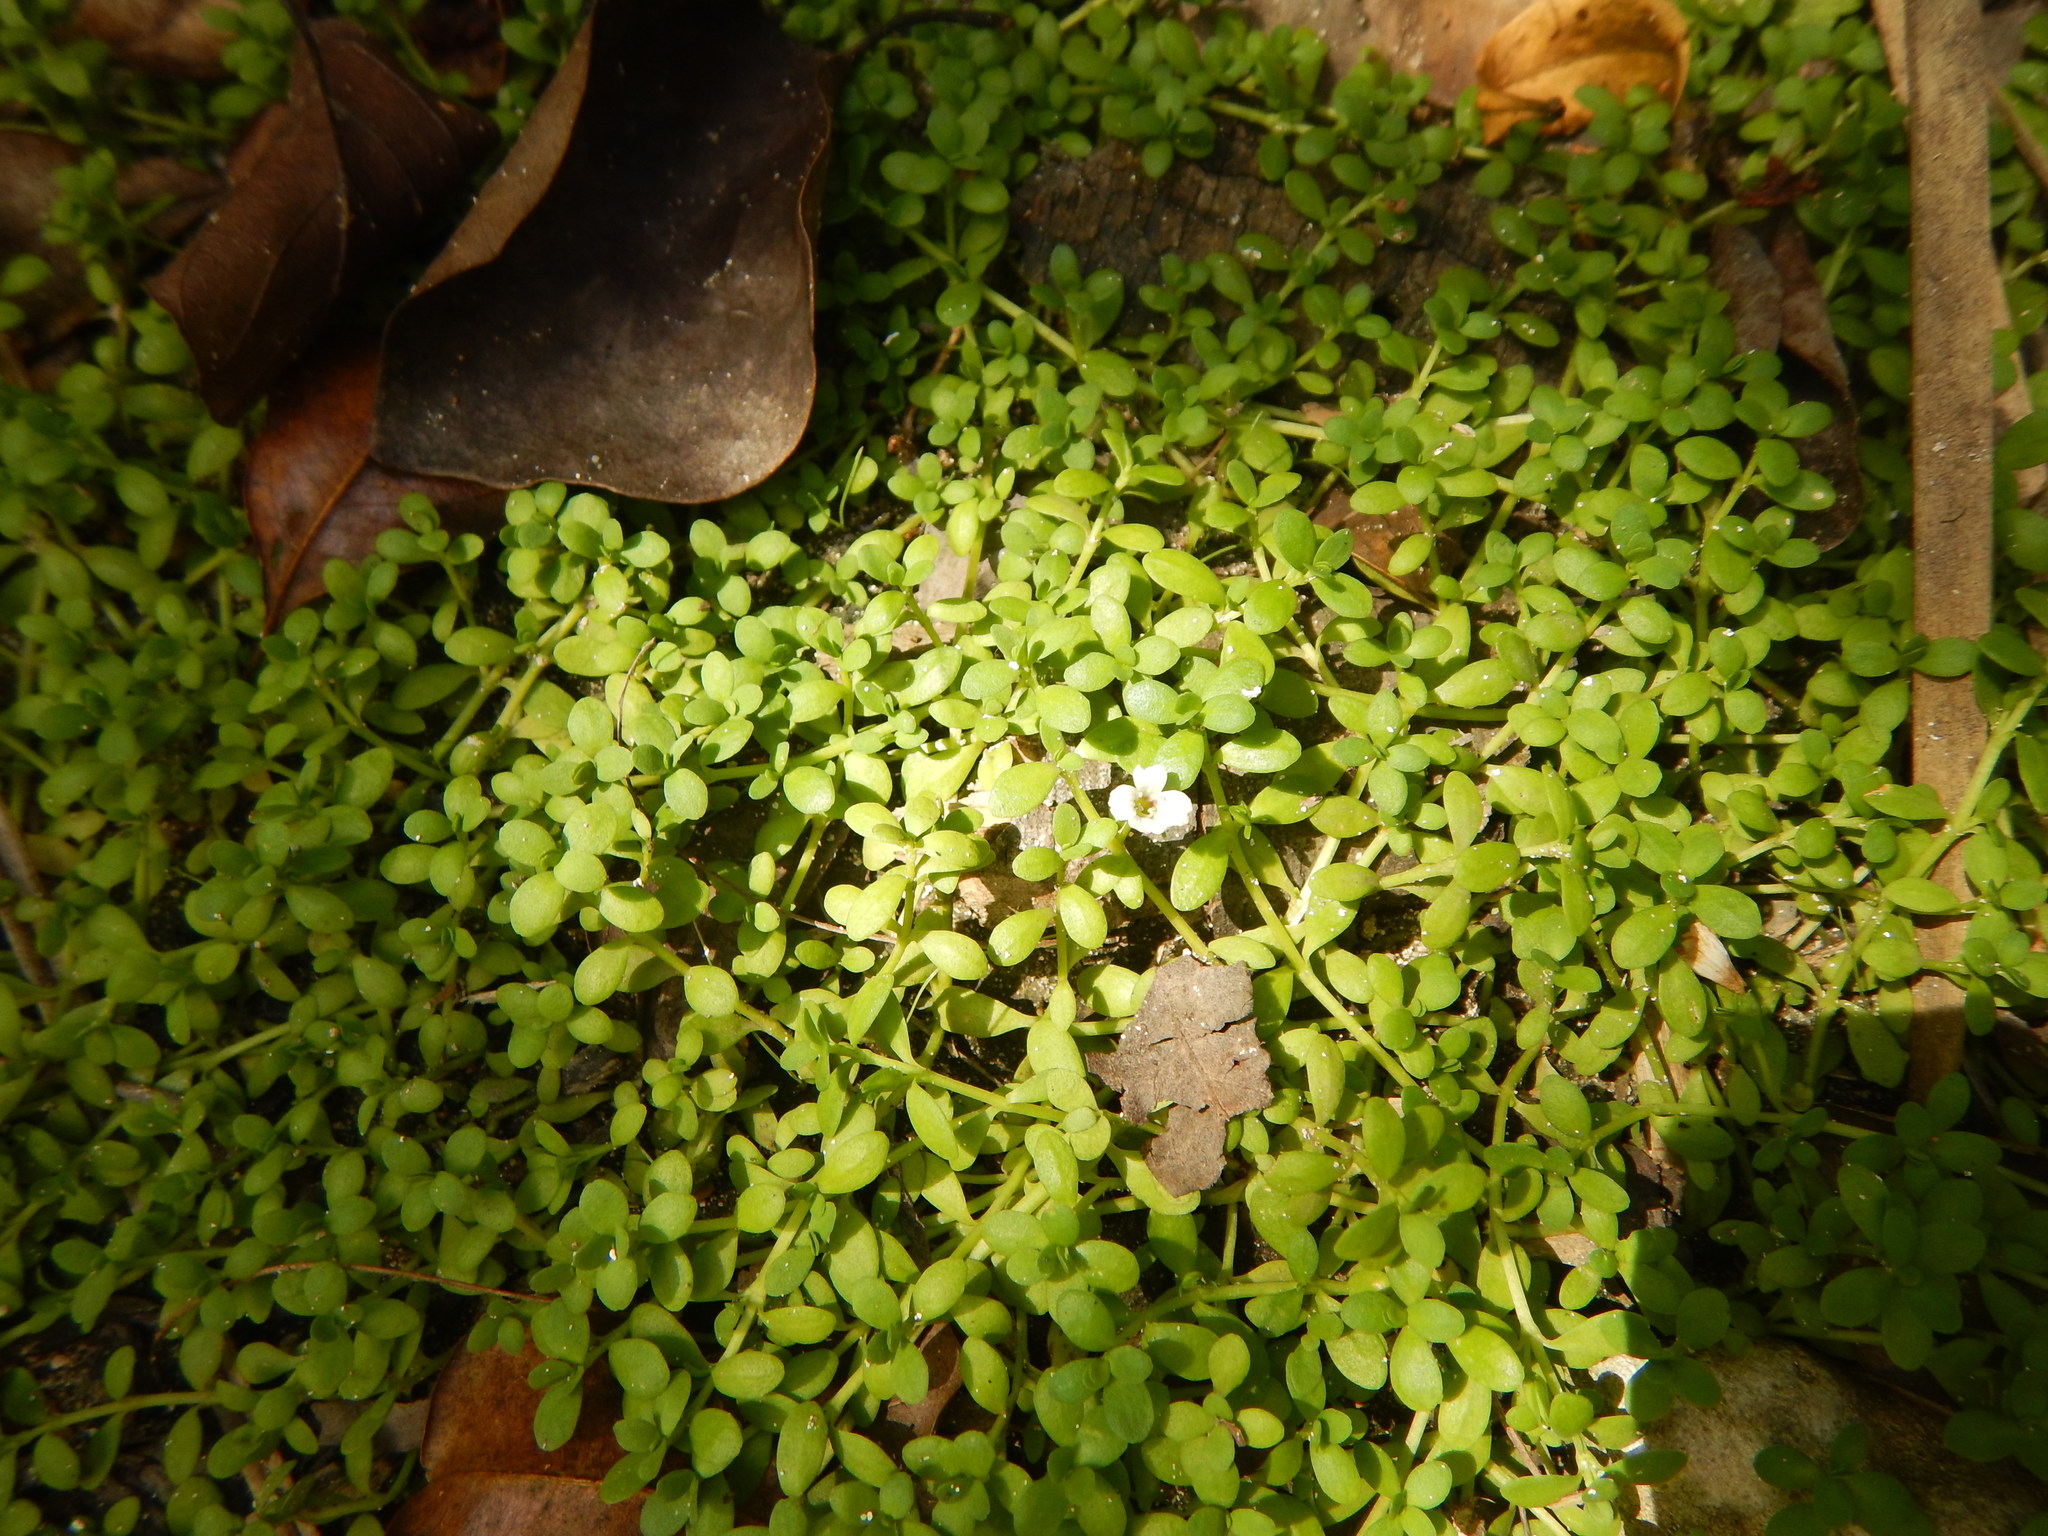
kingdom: Plantae
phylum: Tracheophyta
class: Magnoliopsida
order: Lamiales
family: Plantaginaceae
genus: Bacopa
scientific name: Bacopa monnieri
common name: Indian-pennywort
